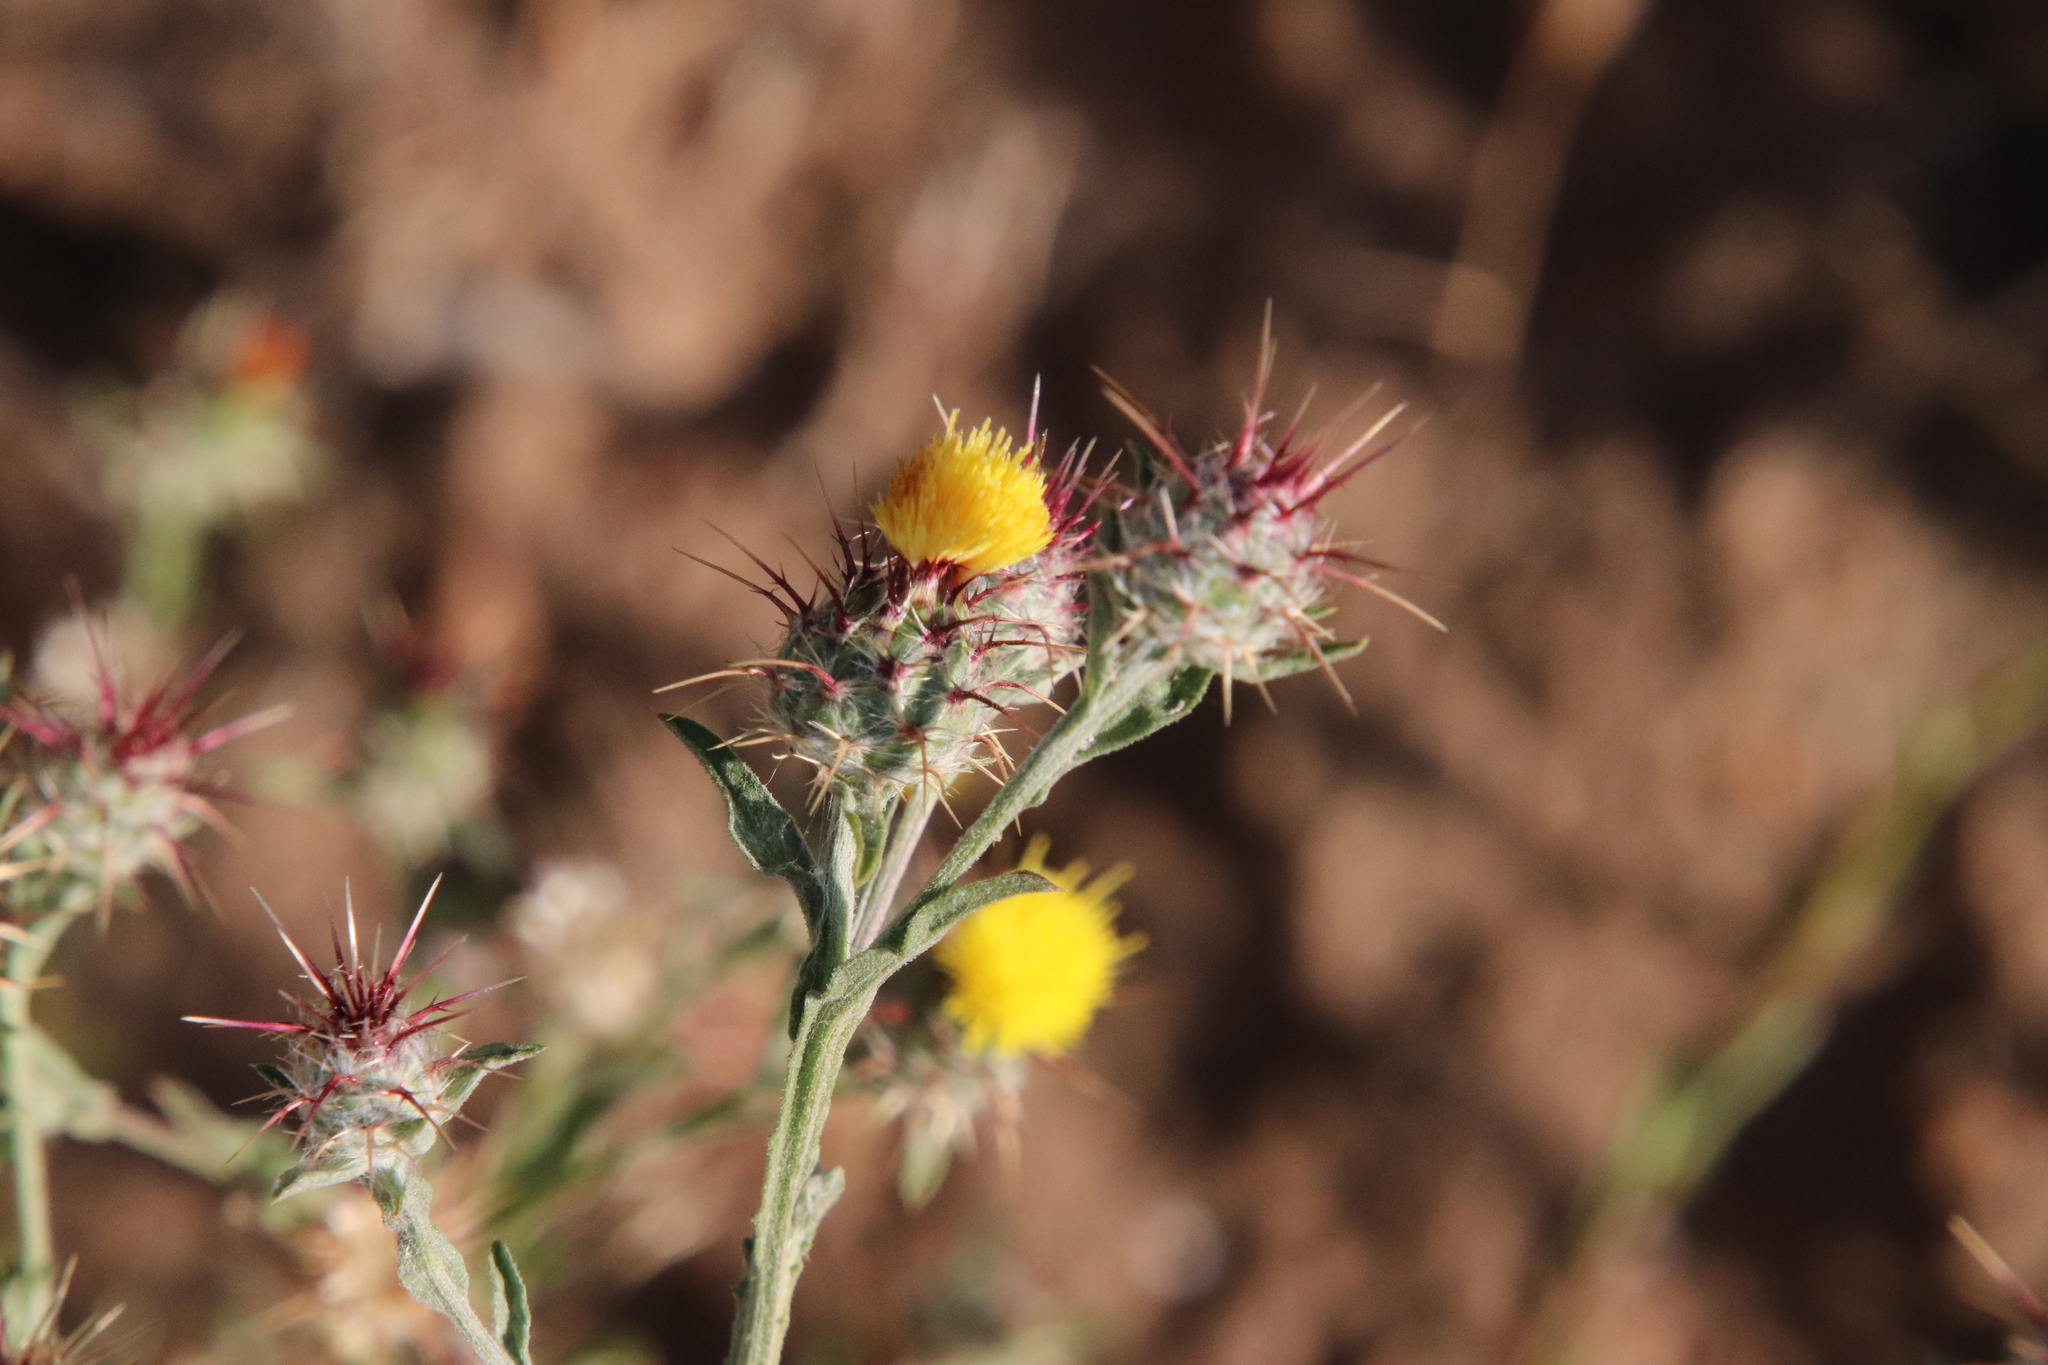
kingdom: Plantae
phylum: Tracheophyta
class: Magnoliopsida
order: Asterales
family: Asteraceae
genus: Centaurea
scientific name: Centaurea melitensis
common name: Maltese star-thistle
